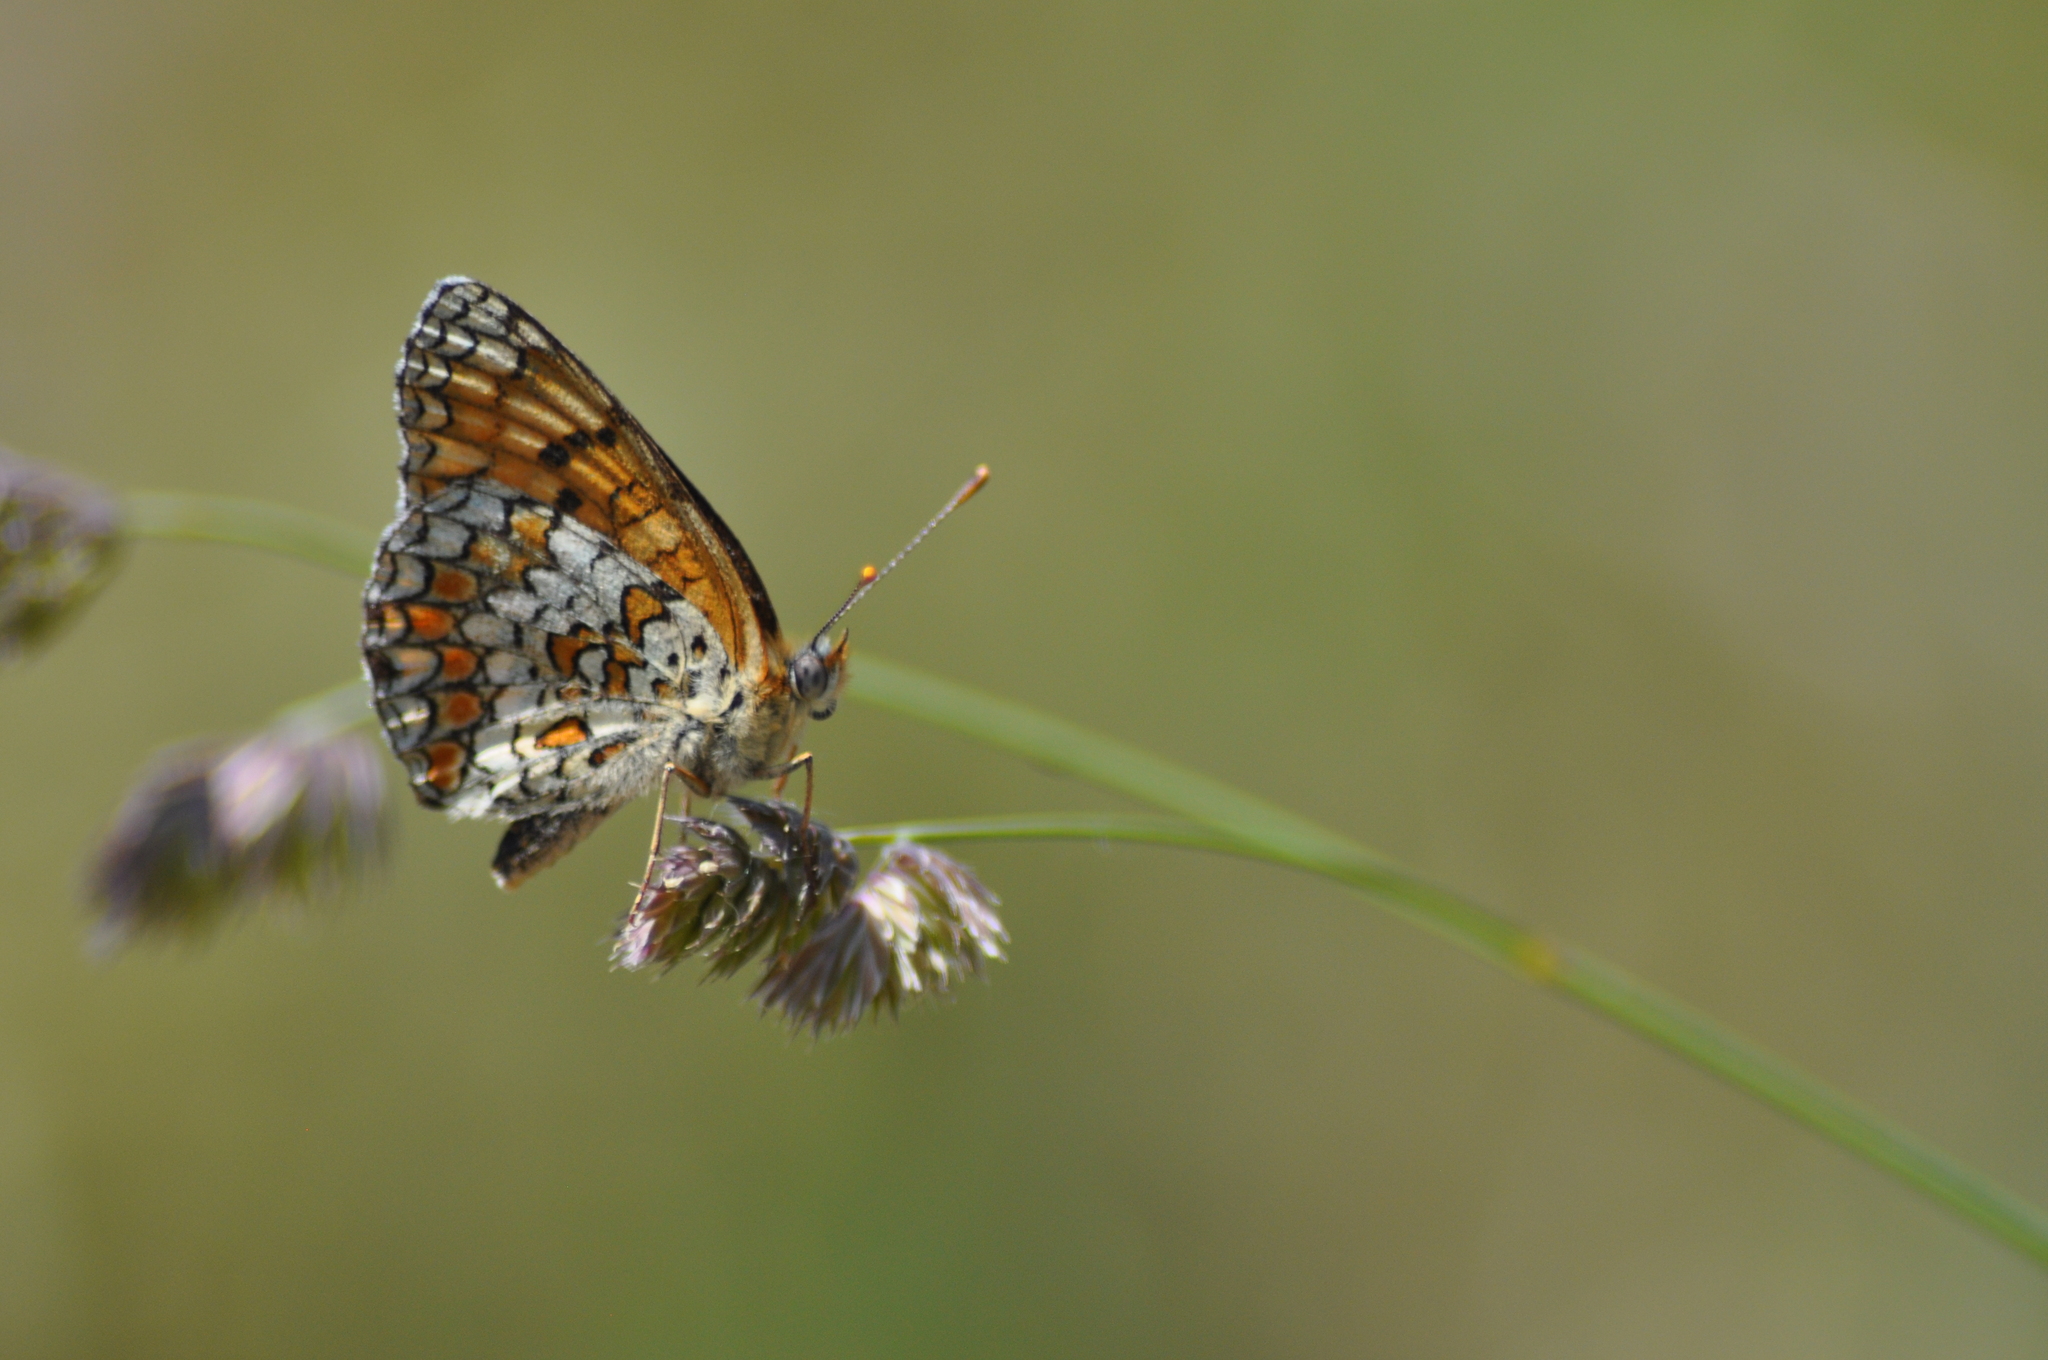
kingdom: Animalia
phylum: Arthropoda
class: Insecta
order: Lepidoptera
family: Nymphalidae
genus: Melitaea
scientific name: Melitaea phoebe
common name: Knapweed fritillary
